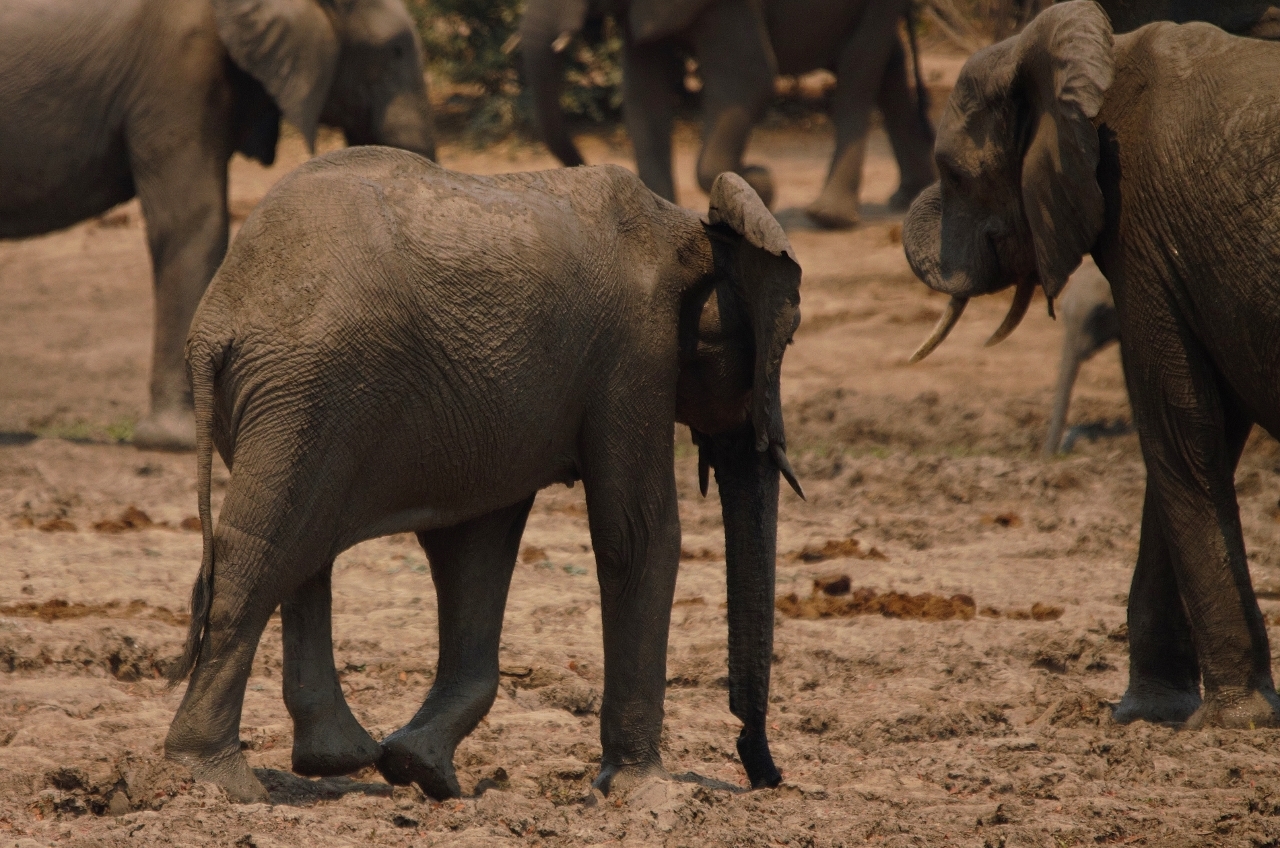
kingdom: Animalia
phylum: Chordata
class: Mammalia
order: Proboscidea
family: Elephantidae
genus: Loxodonta
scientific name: Loxodonta africana
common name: African elephant
